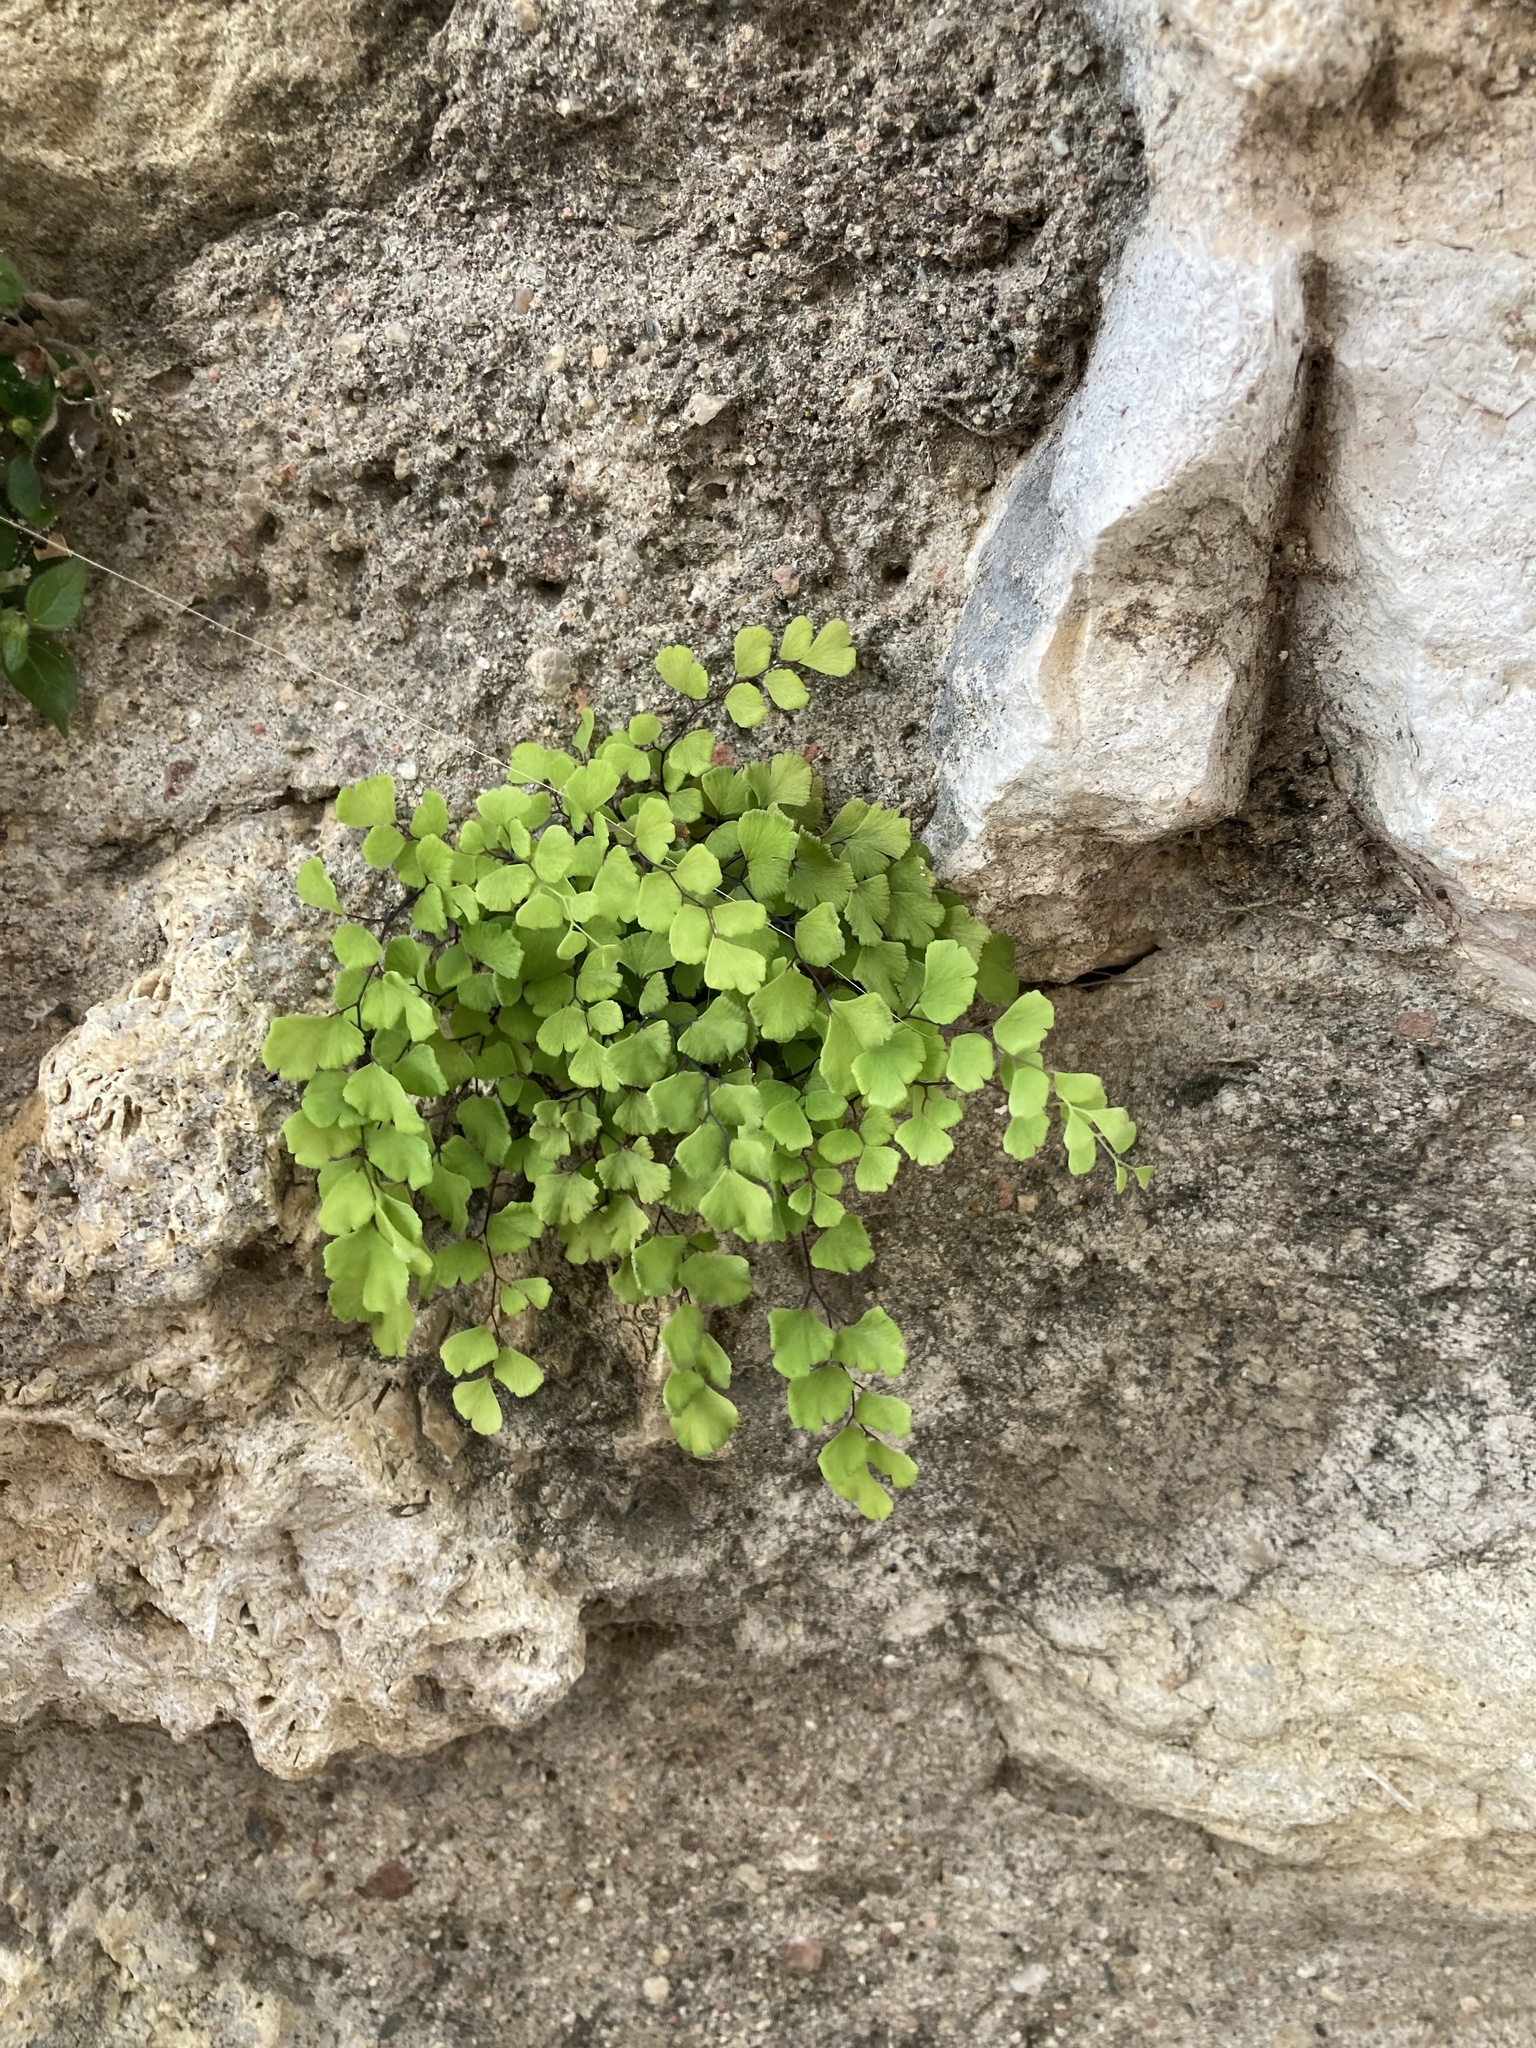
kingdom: Plantae
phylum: Tracheophyta
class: Polypodiopsida
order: Polypodiales
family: Pteridaceae
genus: Adiantum
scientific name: Adiantum capillus-veneris
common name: Maidenhair fern
